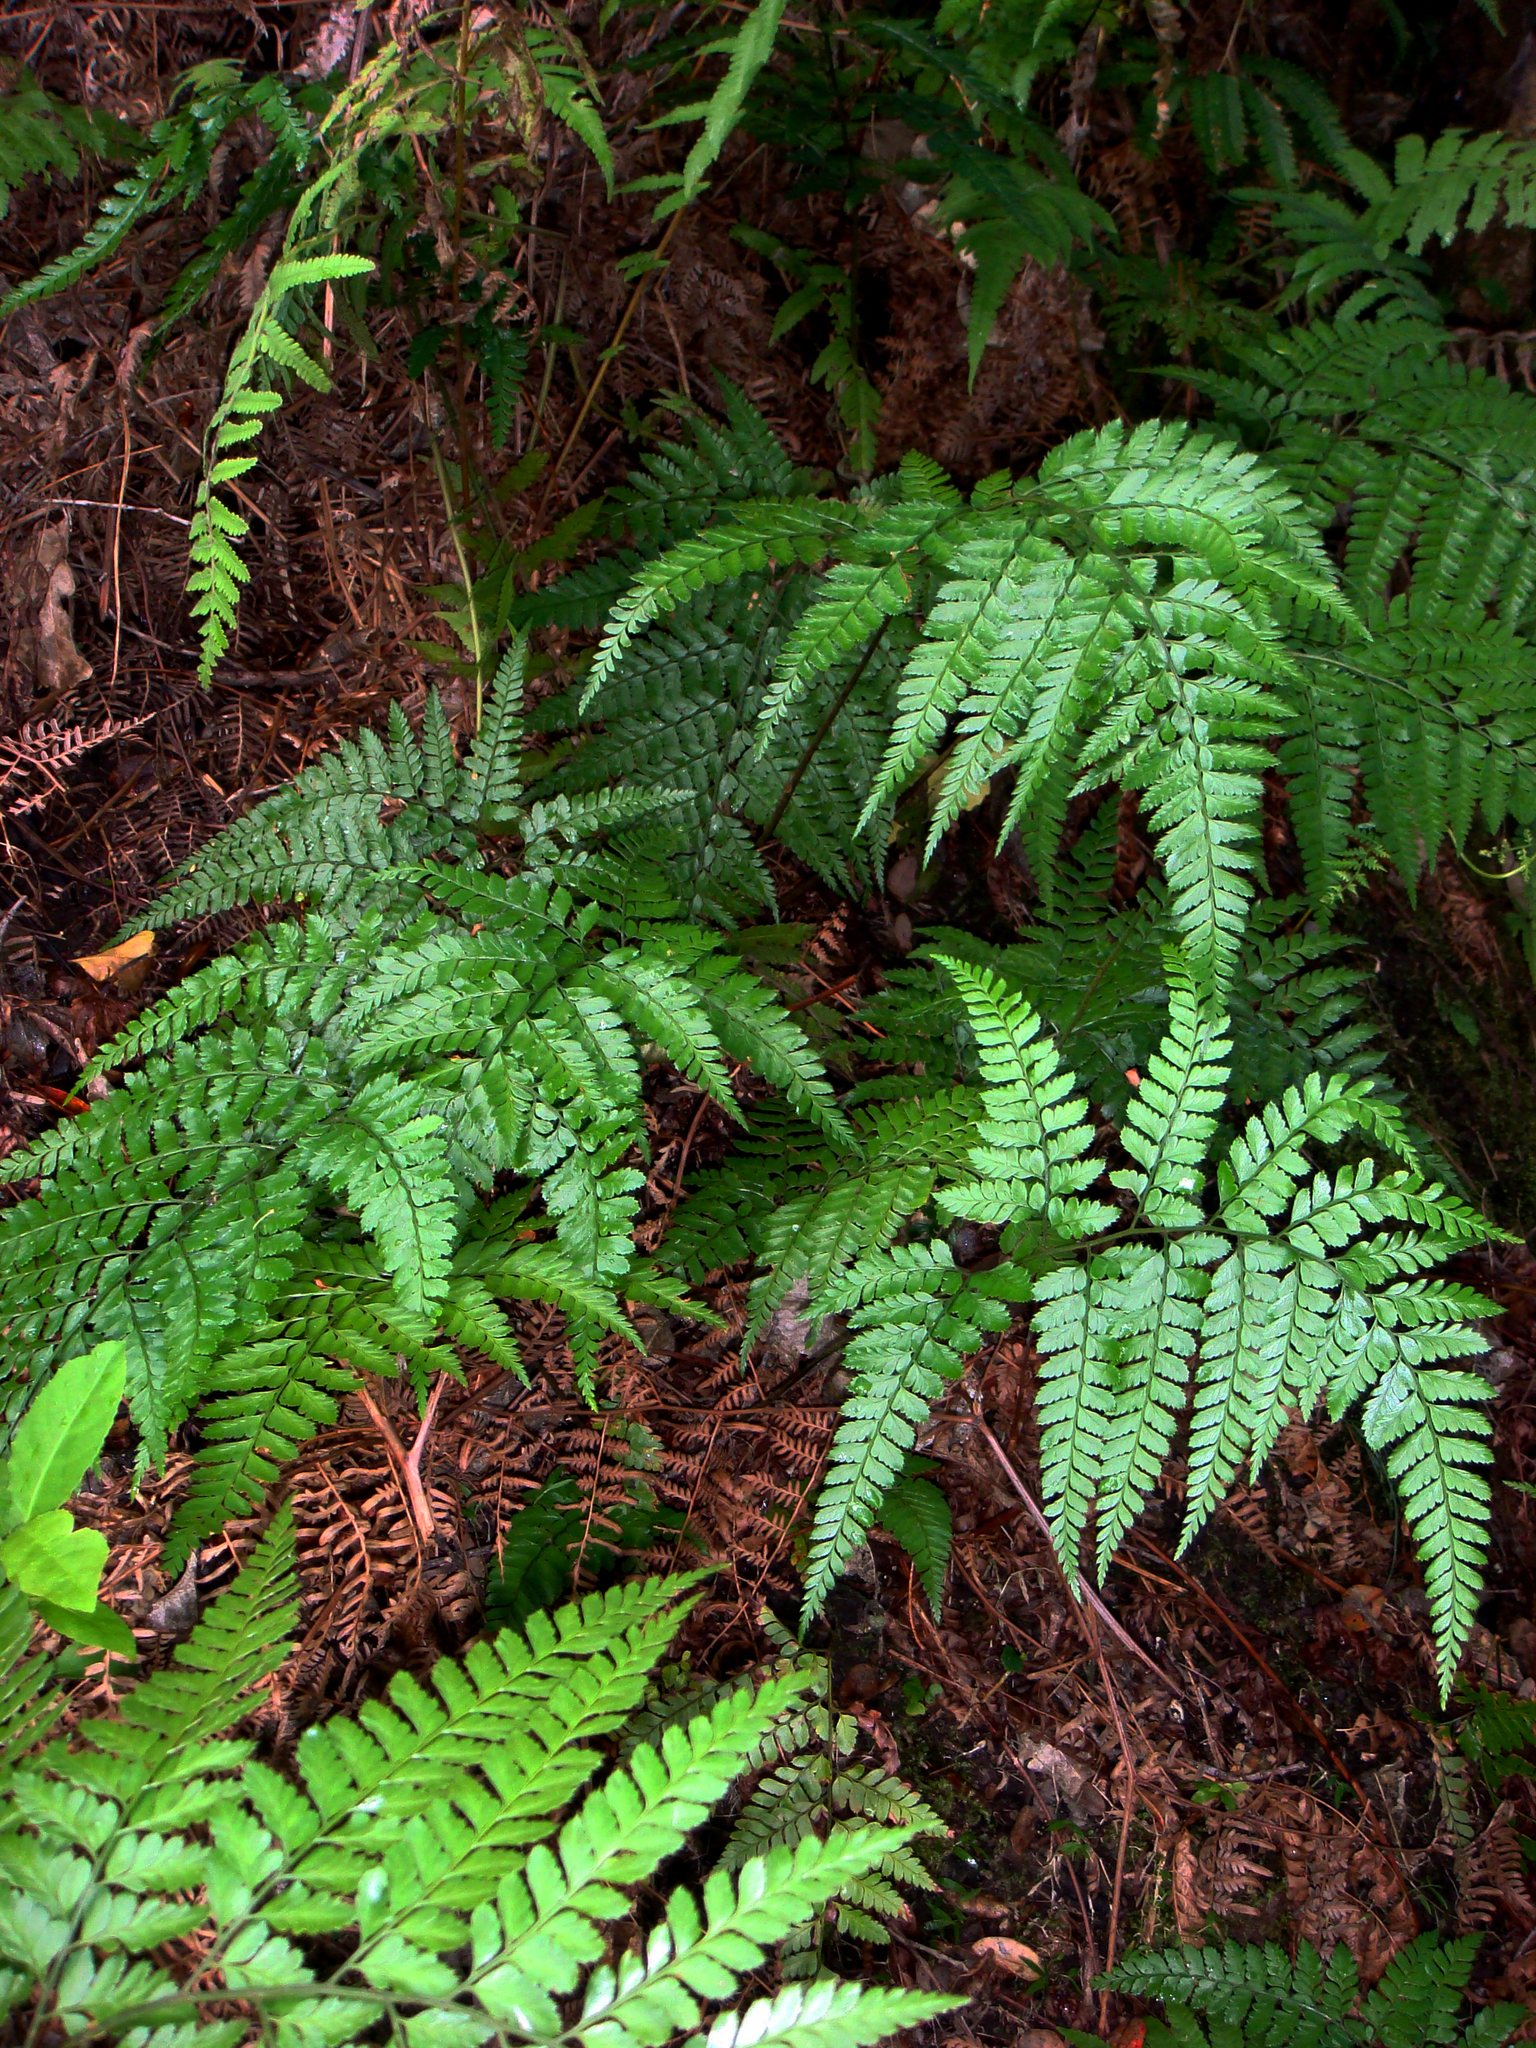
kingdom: Plantae
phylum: Tracheophyta
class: Polypodiopsida
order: Polypodiales
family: Dryopteridaceae
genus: Arachniodes
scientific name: Arachniodes aristata
